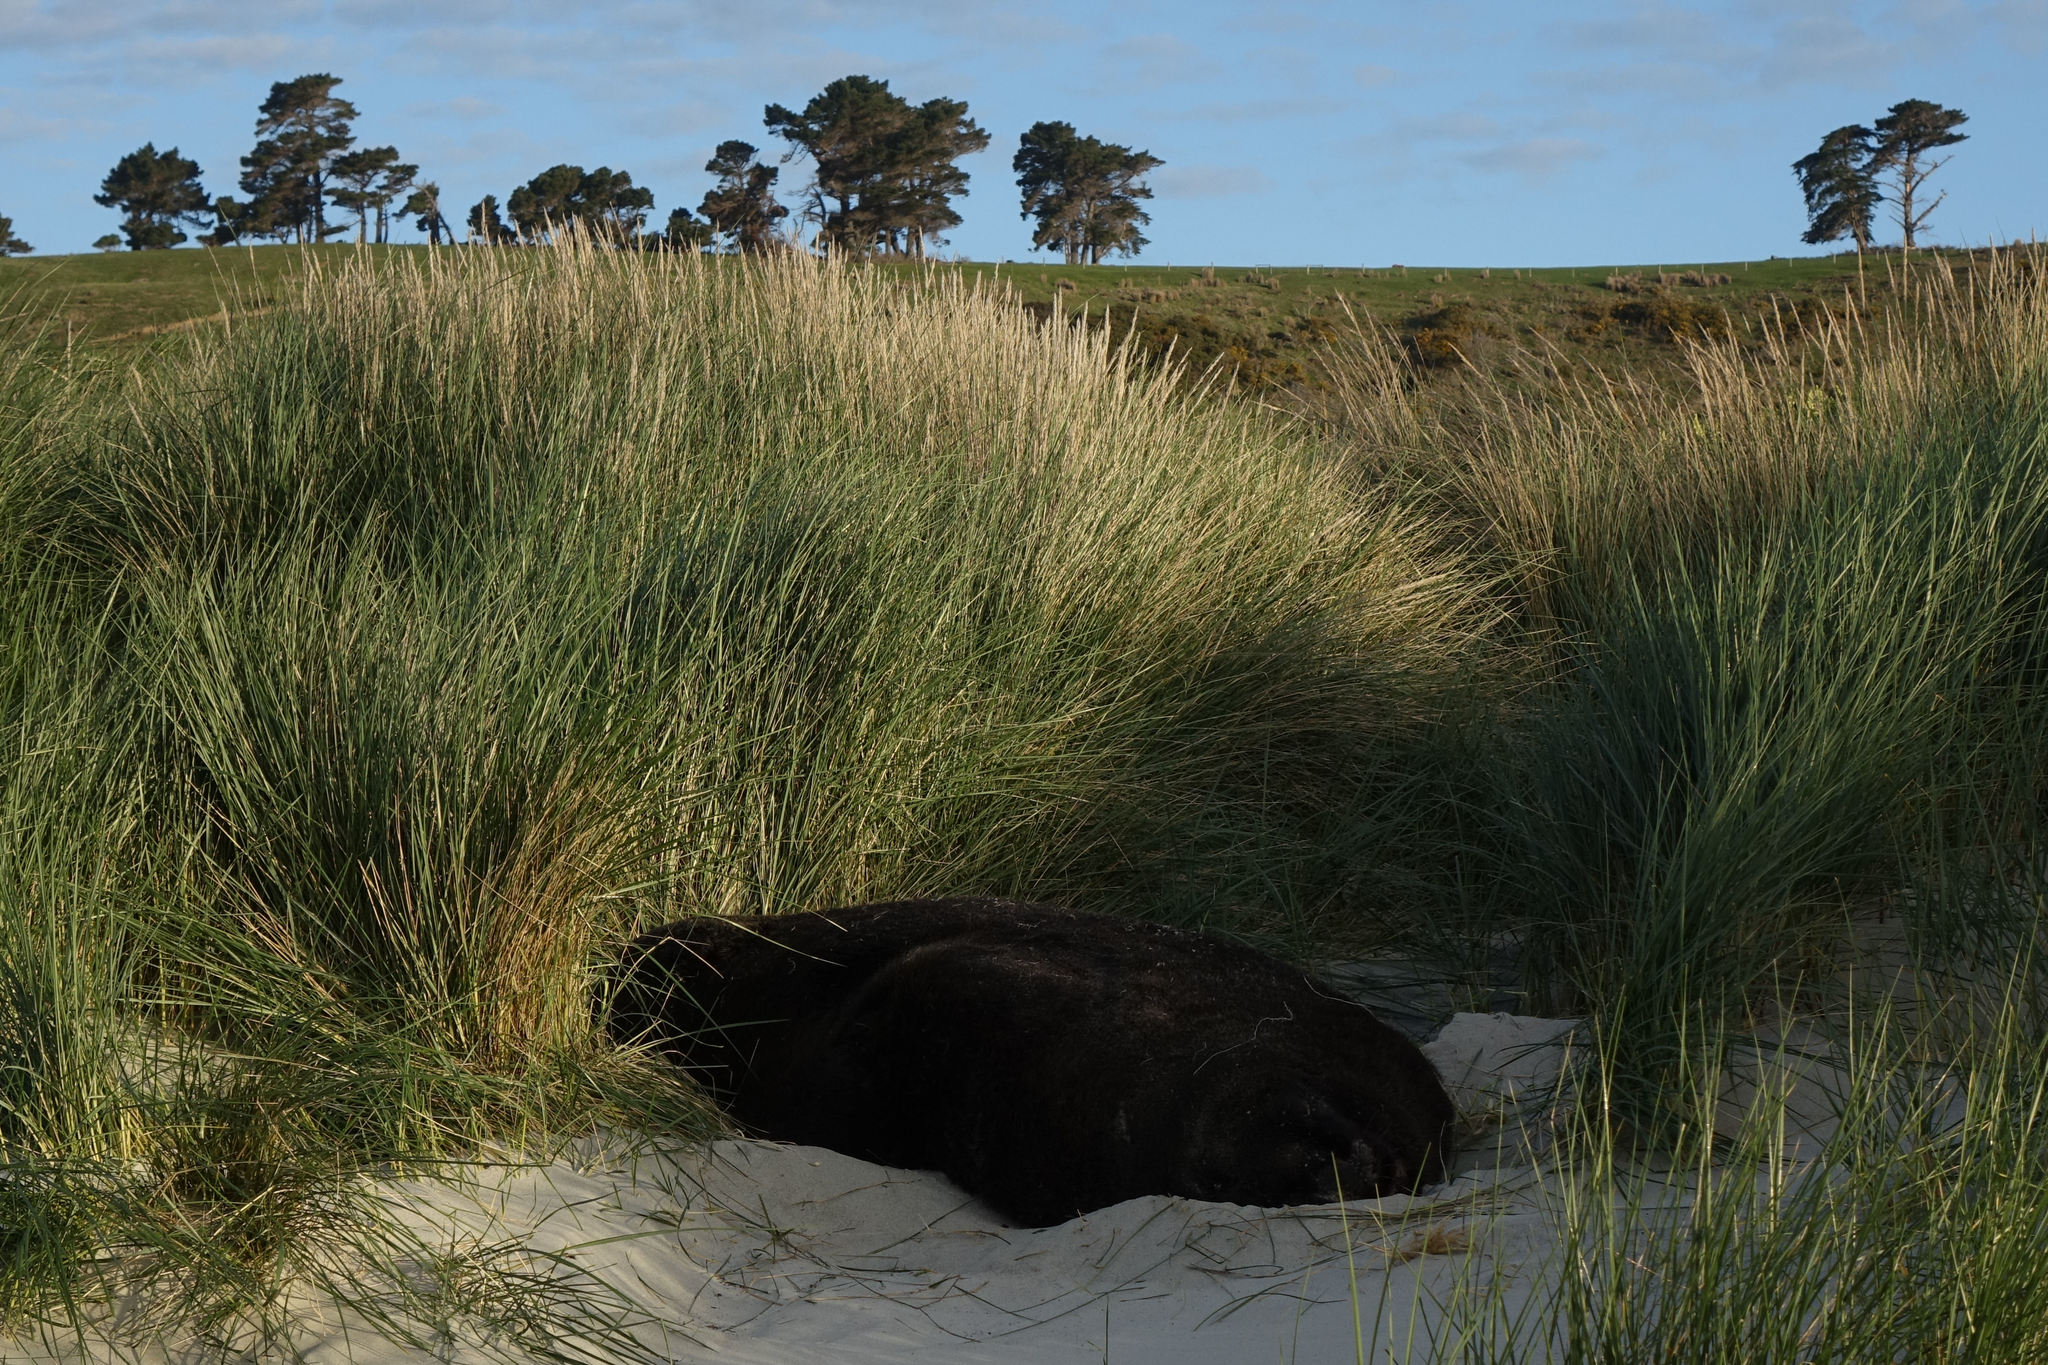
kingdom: Animalia
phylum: Chordata
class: Mammalia
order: Carnivora
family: Otariidae
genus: Phocarctos
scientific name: Phocarctos hookeri
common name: New zealand sea lion
